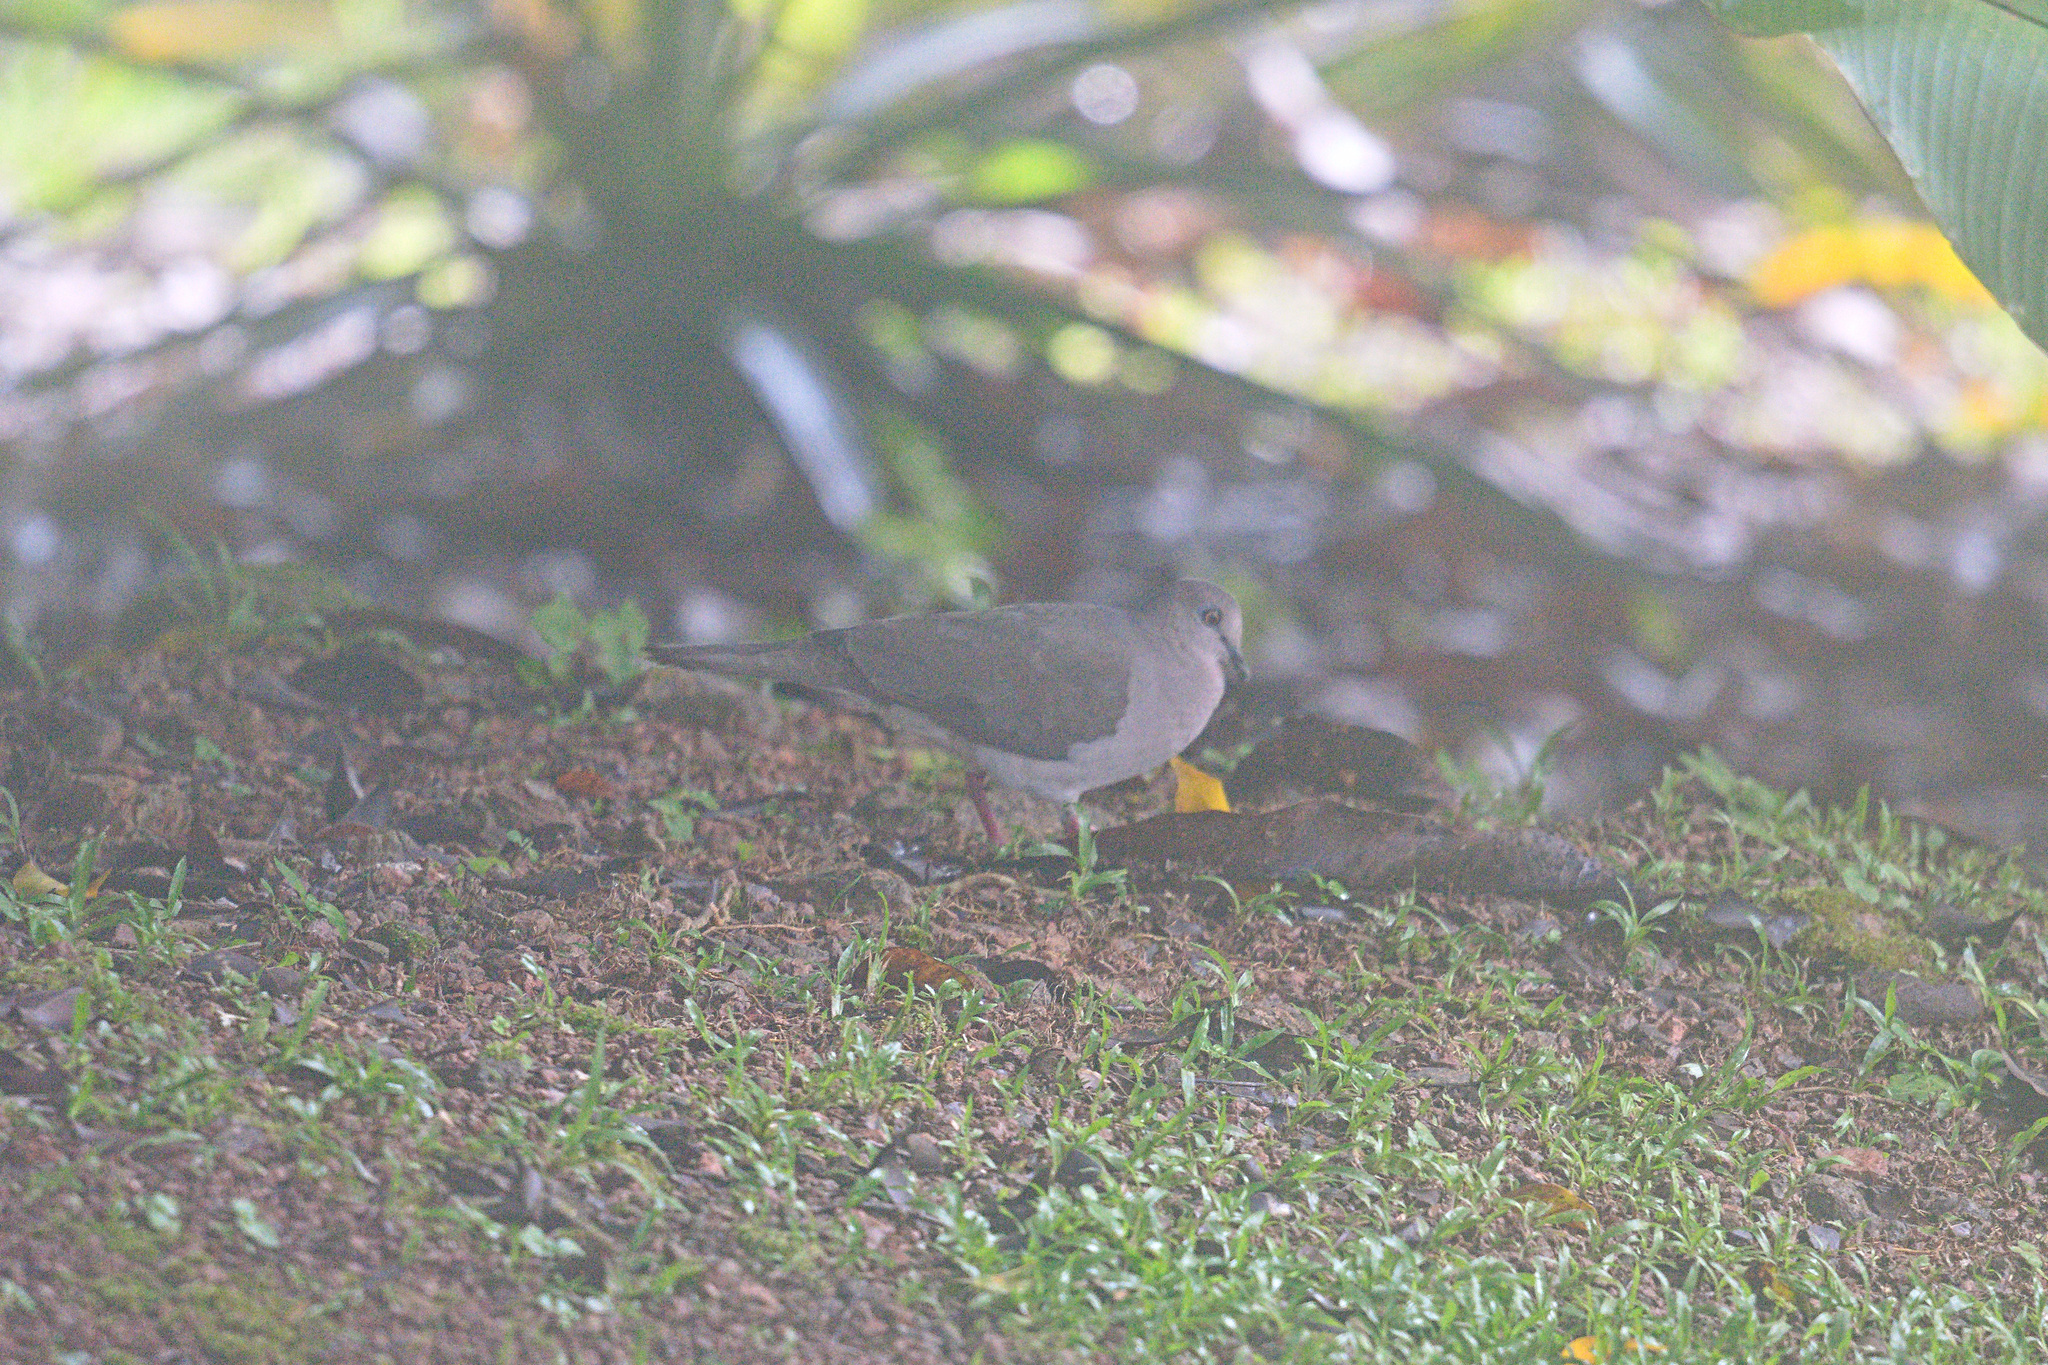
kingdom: Animalia
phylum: Chordata
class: Aves
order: Columbiformes
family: Columbidae
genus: Leptotila
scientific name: Leptotila verreauxi
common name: White-tipped dove
